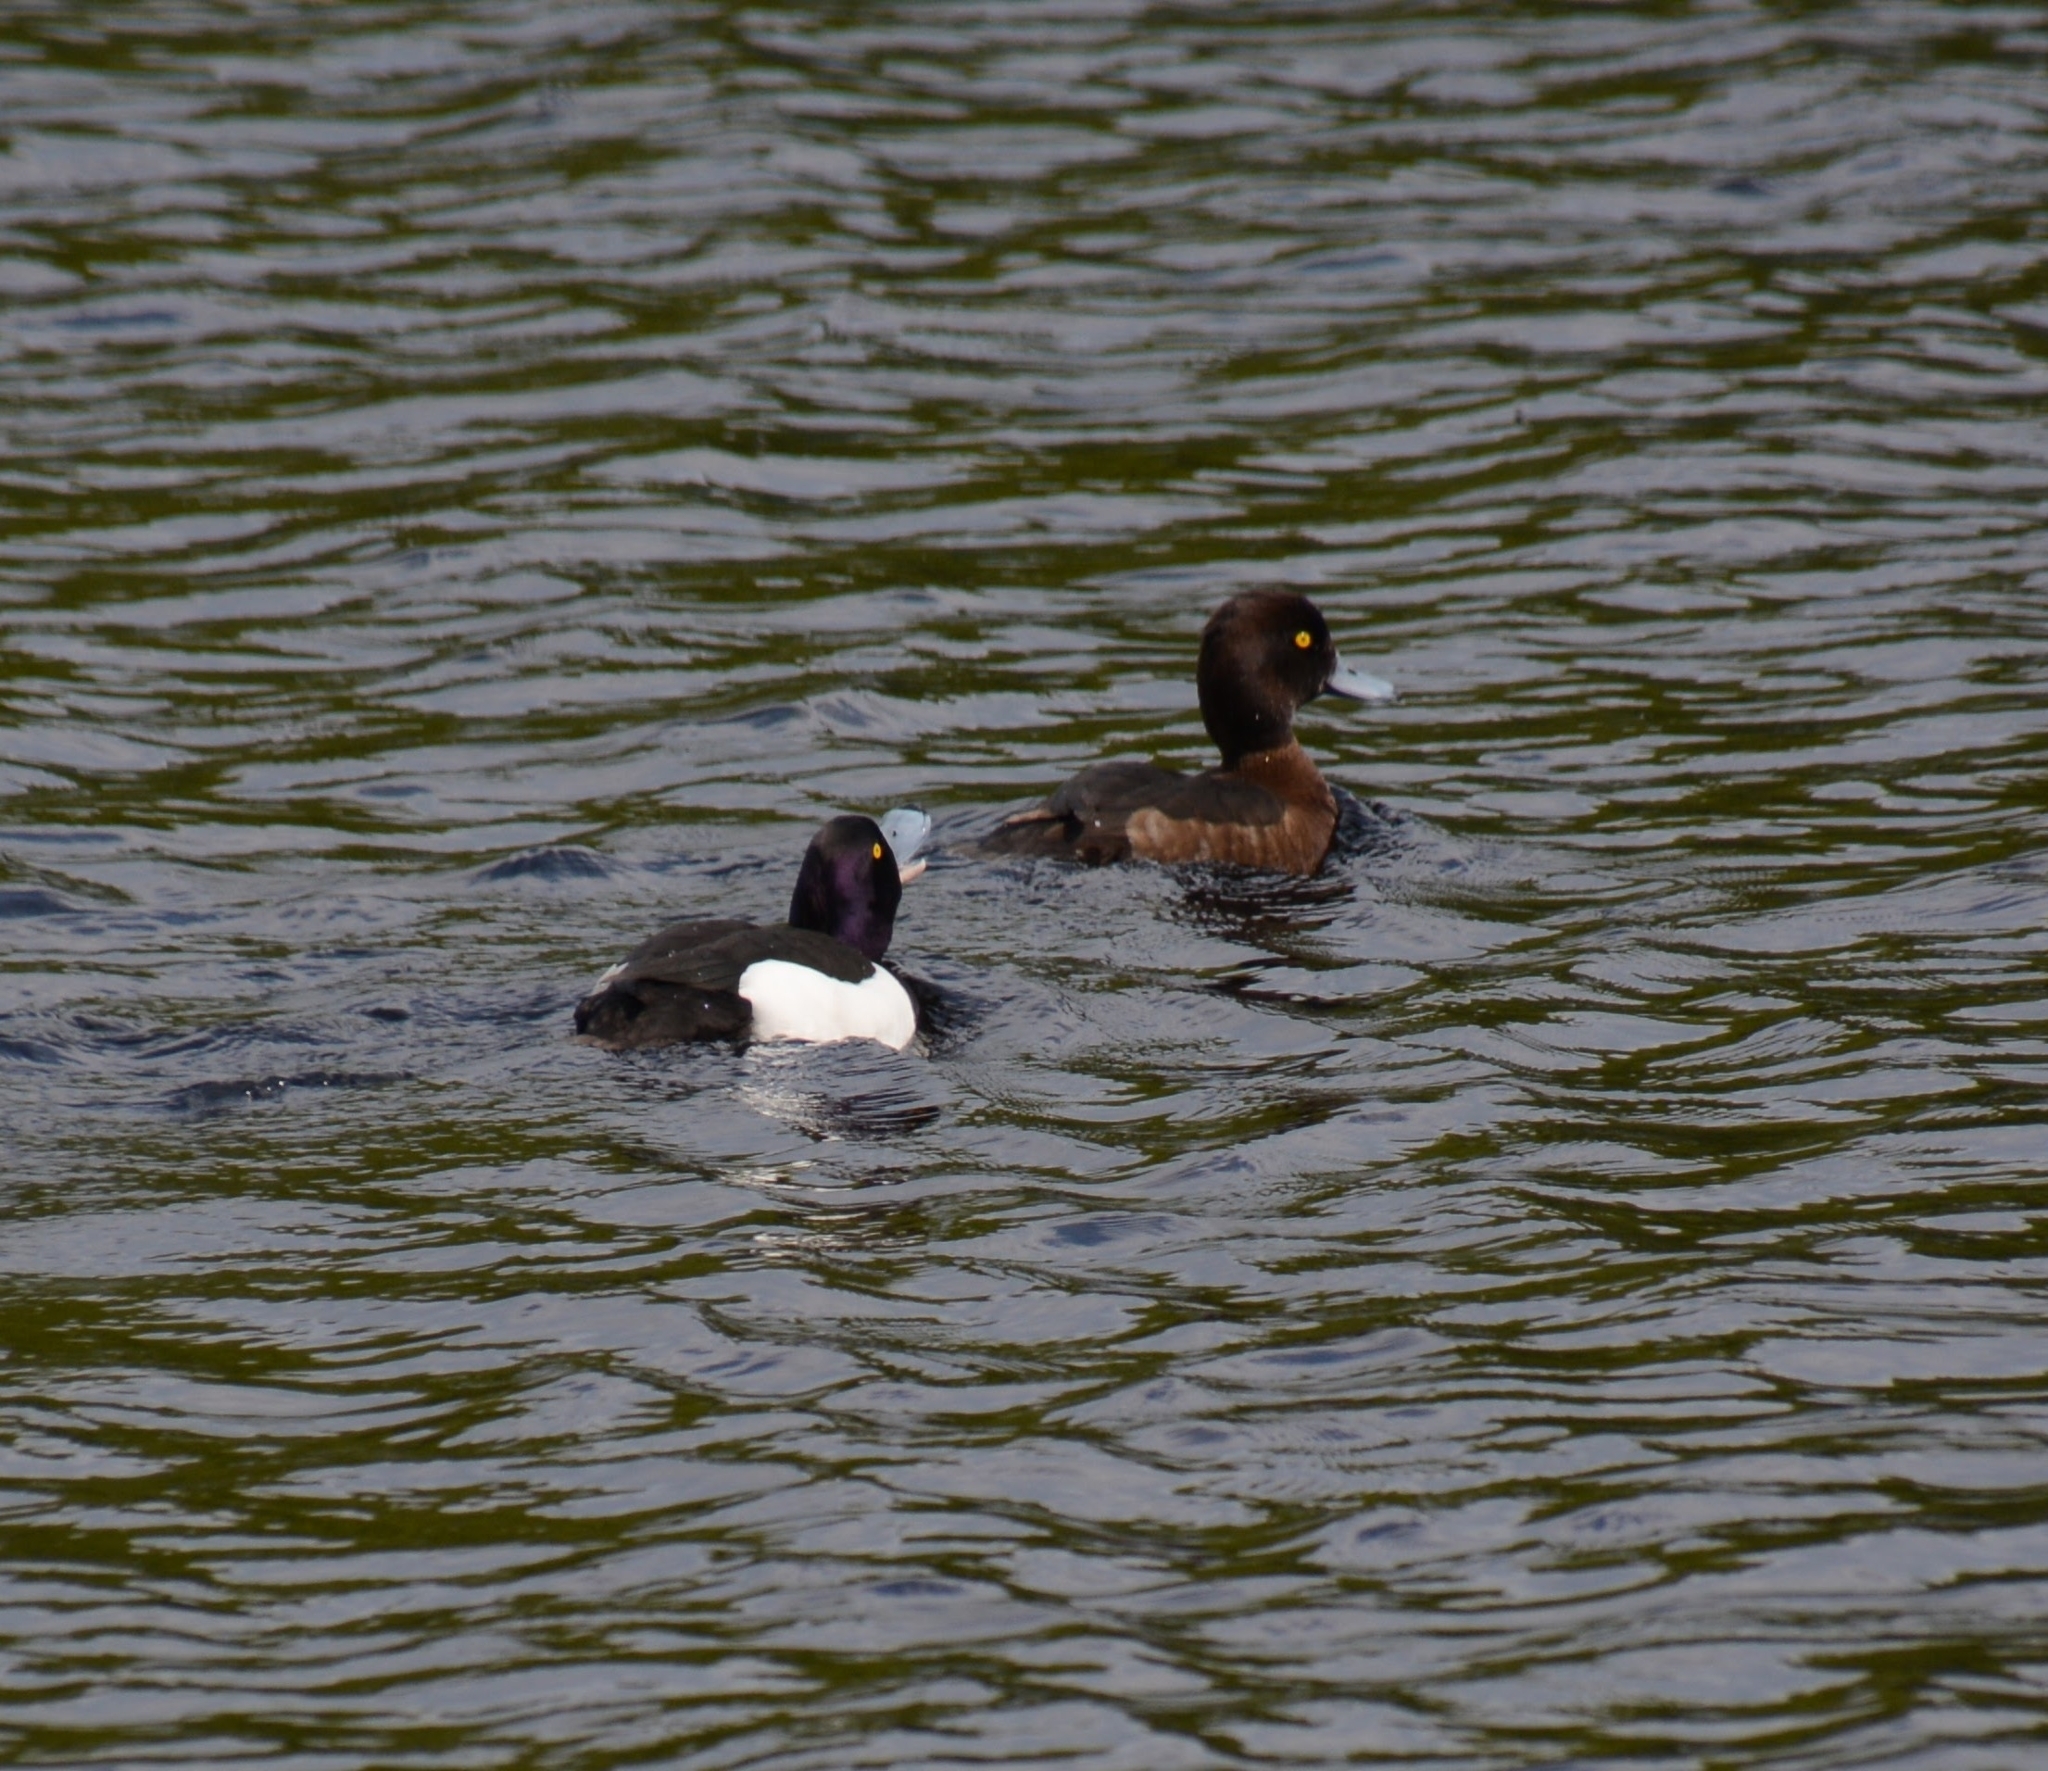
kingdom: Animalia
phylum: Chordata
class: Aves
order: Anseriformes
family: Anatidae
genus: Aythya
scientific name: Aythya fuligula
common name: Tufted duck
